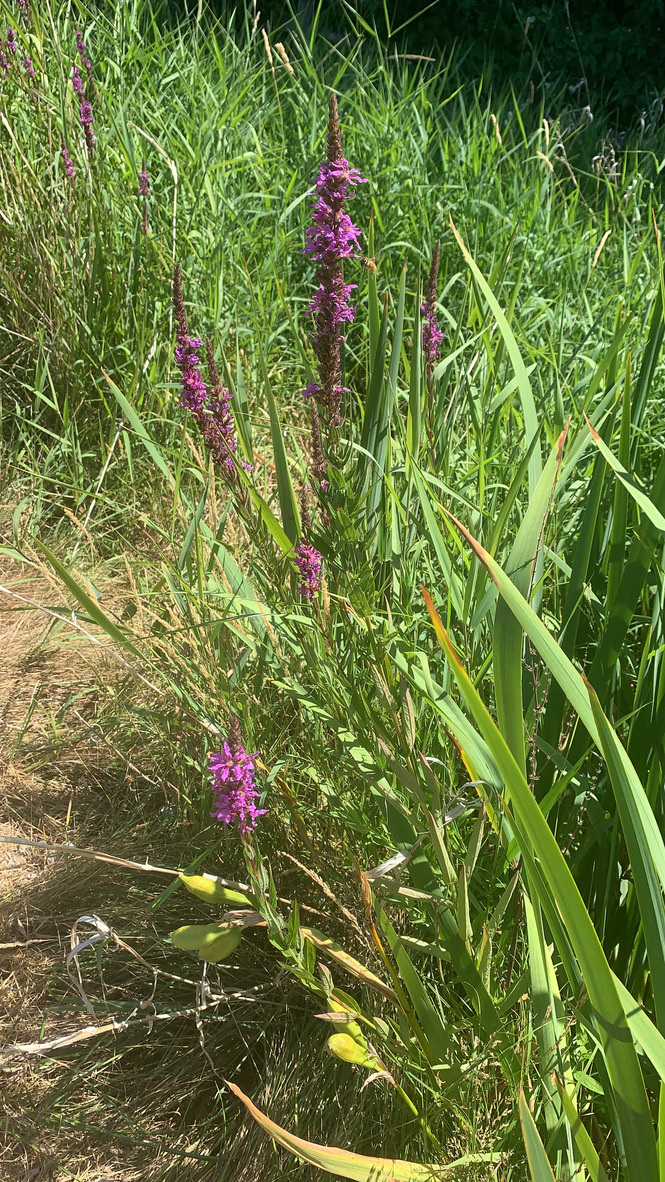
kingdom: Plantae
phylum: Tracheophyta
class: Magnoliopsida
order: Myrtales
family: Lythraceae
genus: Lythrum
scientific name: Lythrum salicaria
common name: Purple loosestrife
